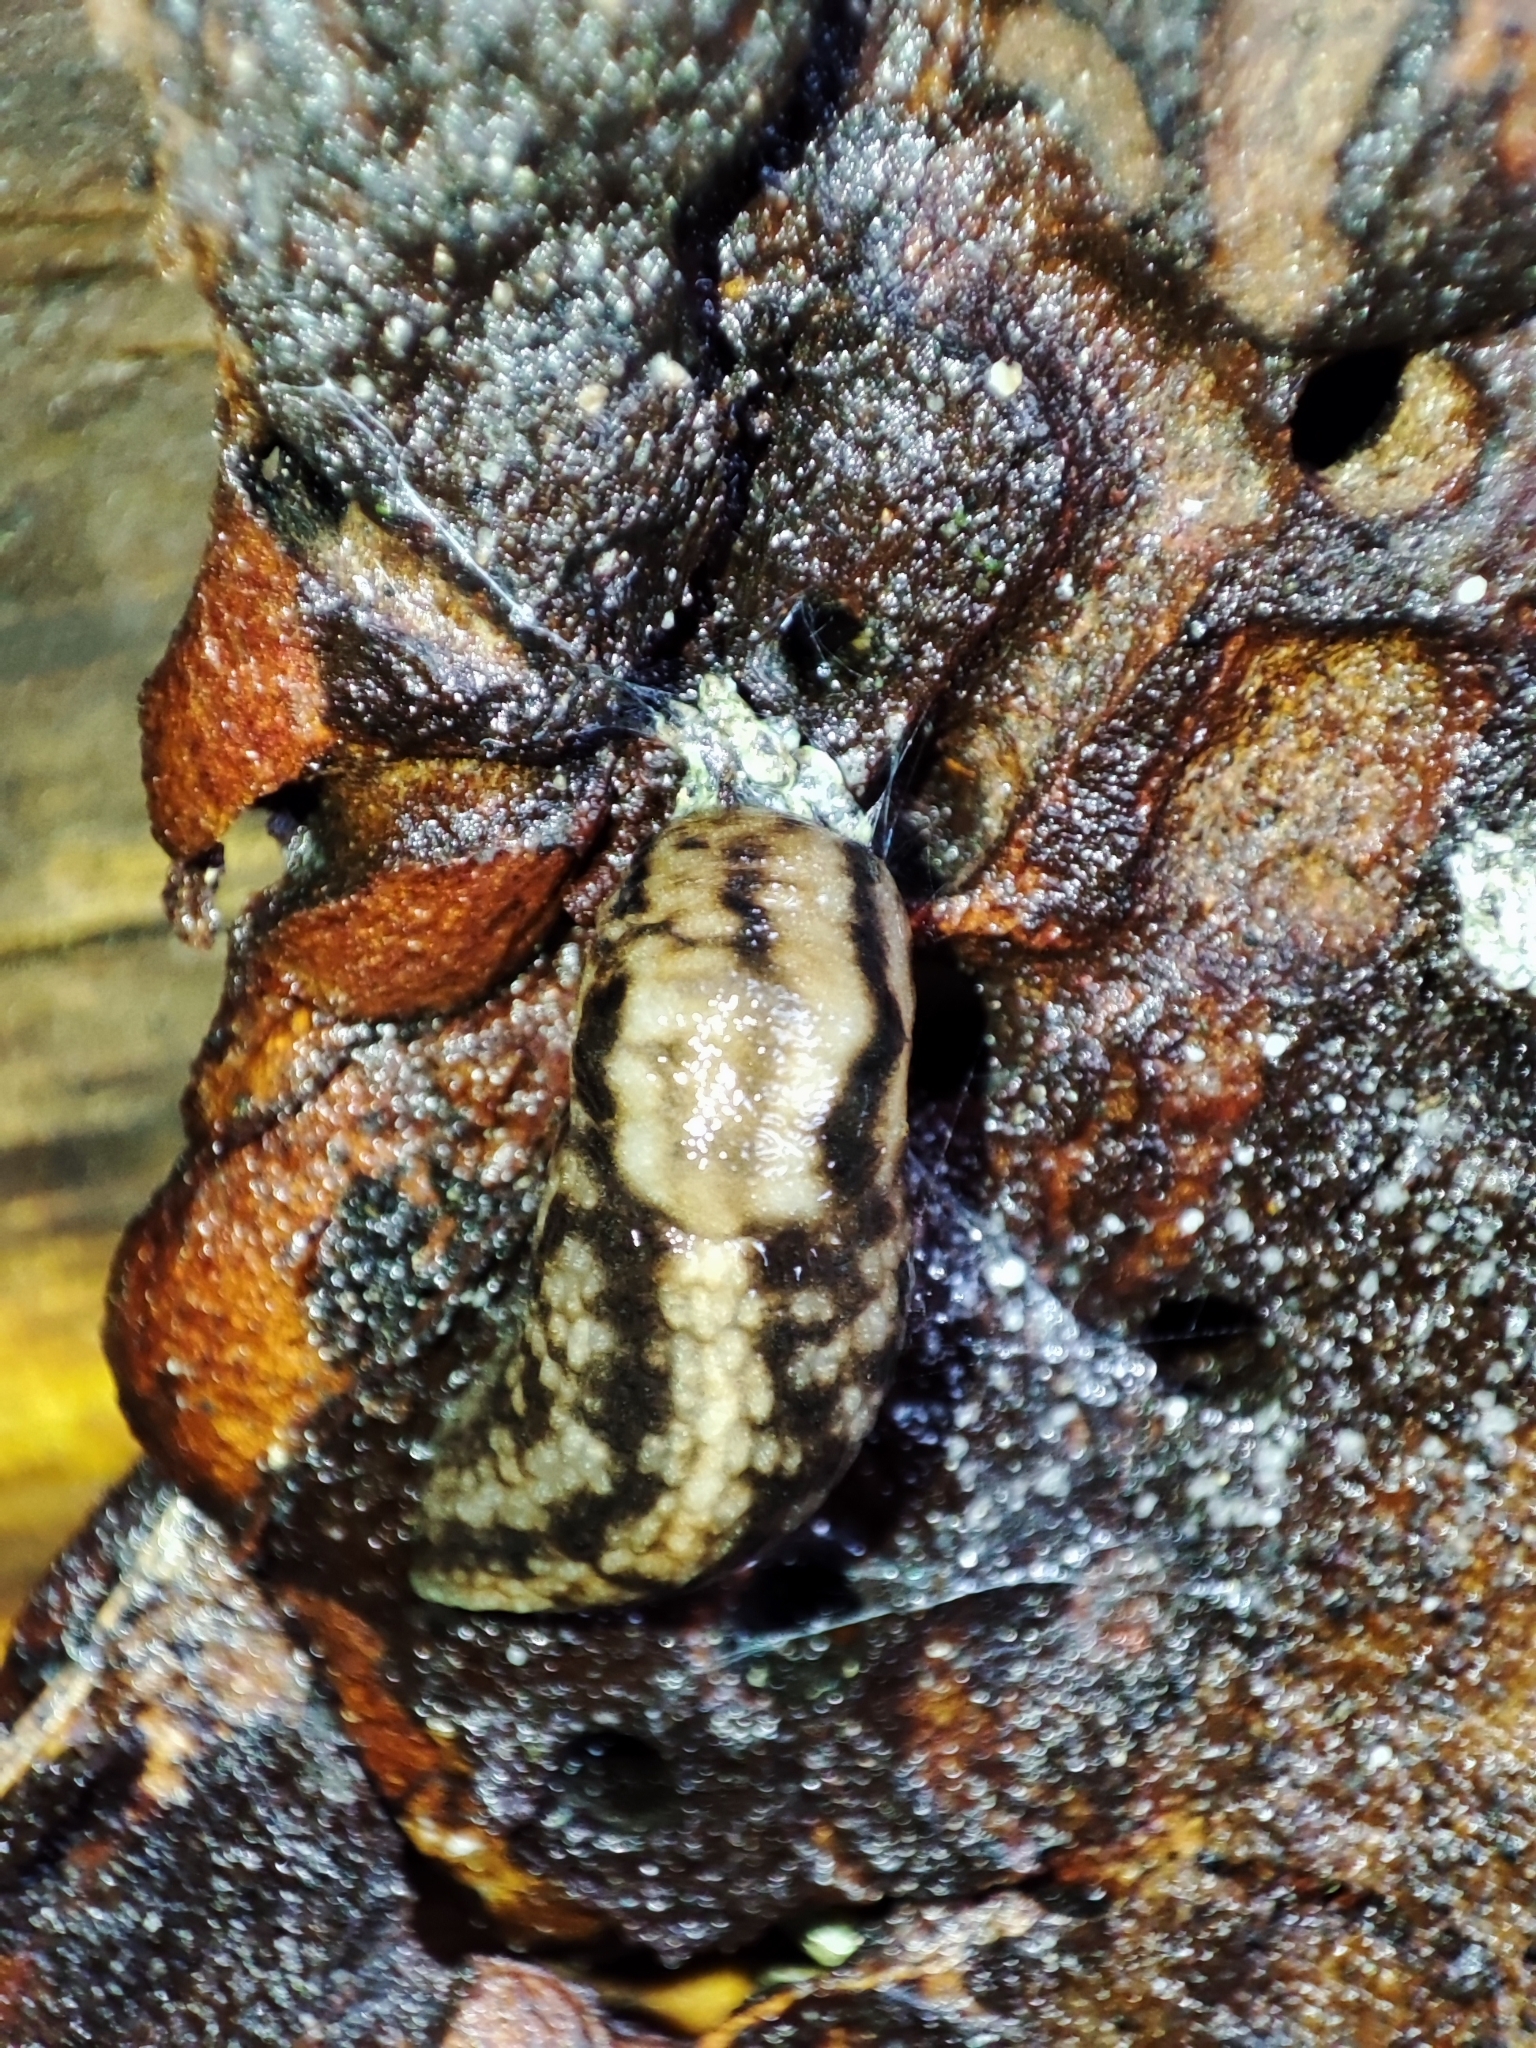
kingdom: Animalia
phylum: Mollusca
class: Gastropoda
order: Stylommatophora
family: Limacidae
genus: Lehmannia
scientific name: Lehmannia
